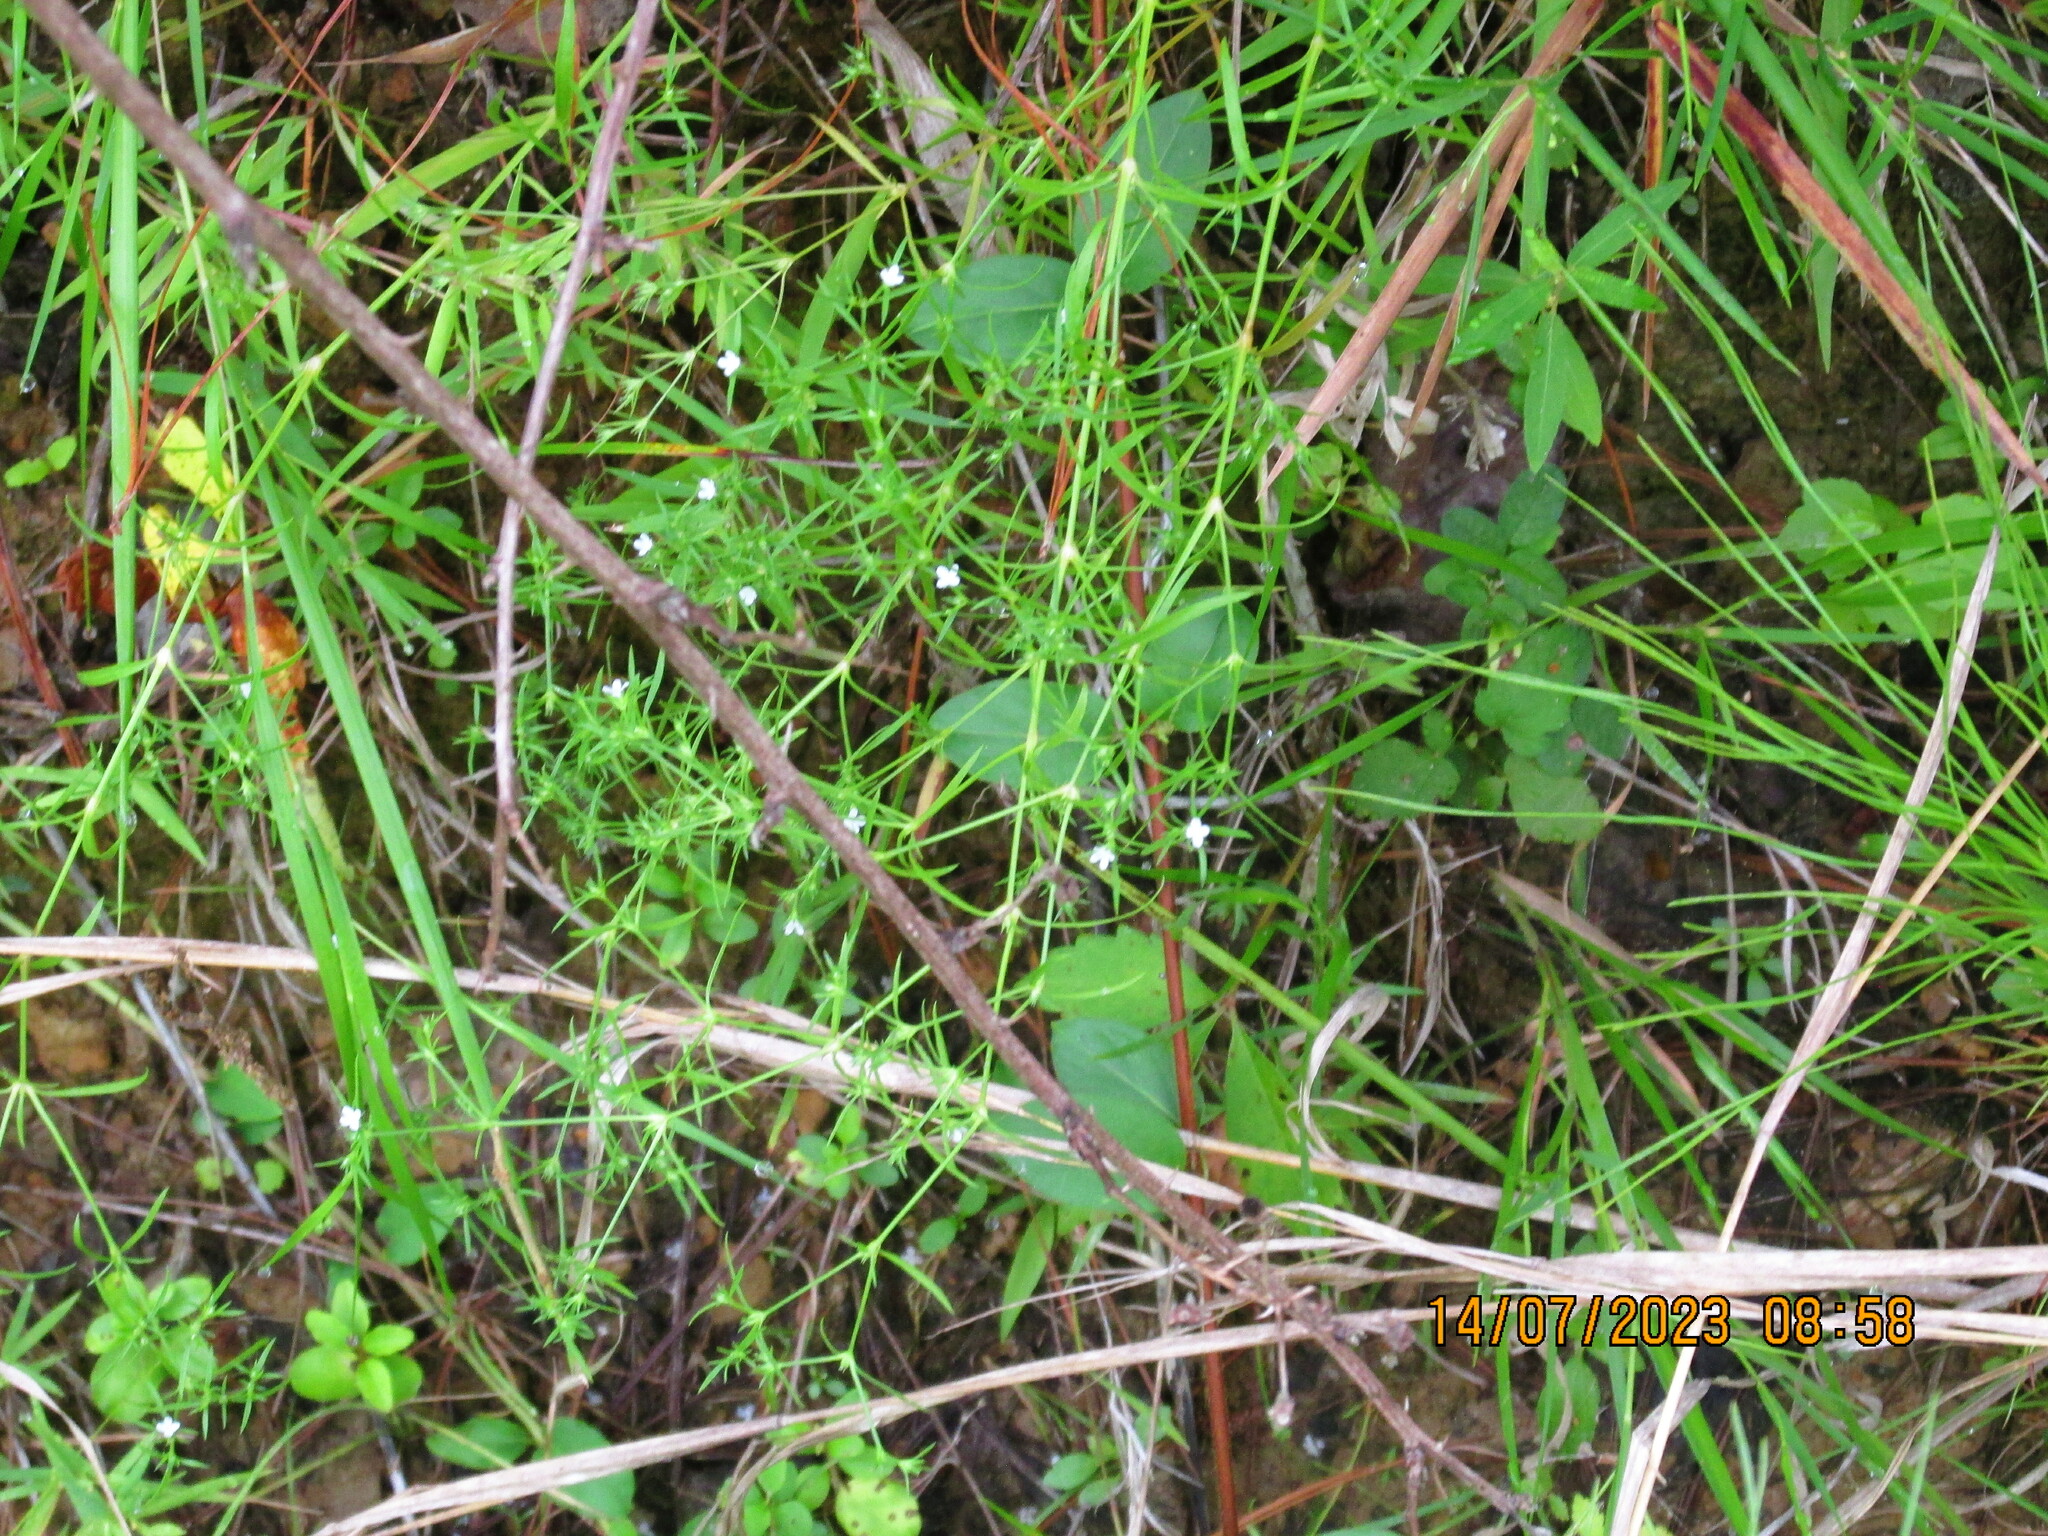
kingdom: Plantae
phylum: Tracheophyta
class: Magnoliopsida
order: Lamiales
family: Tetrachondraceae
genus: Polypremum
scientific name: Polypremum procumbens
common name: Juniper-leaf
